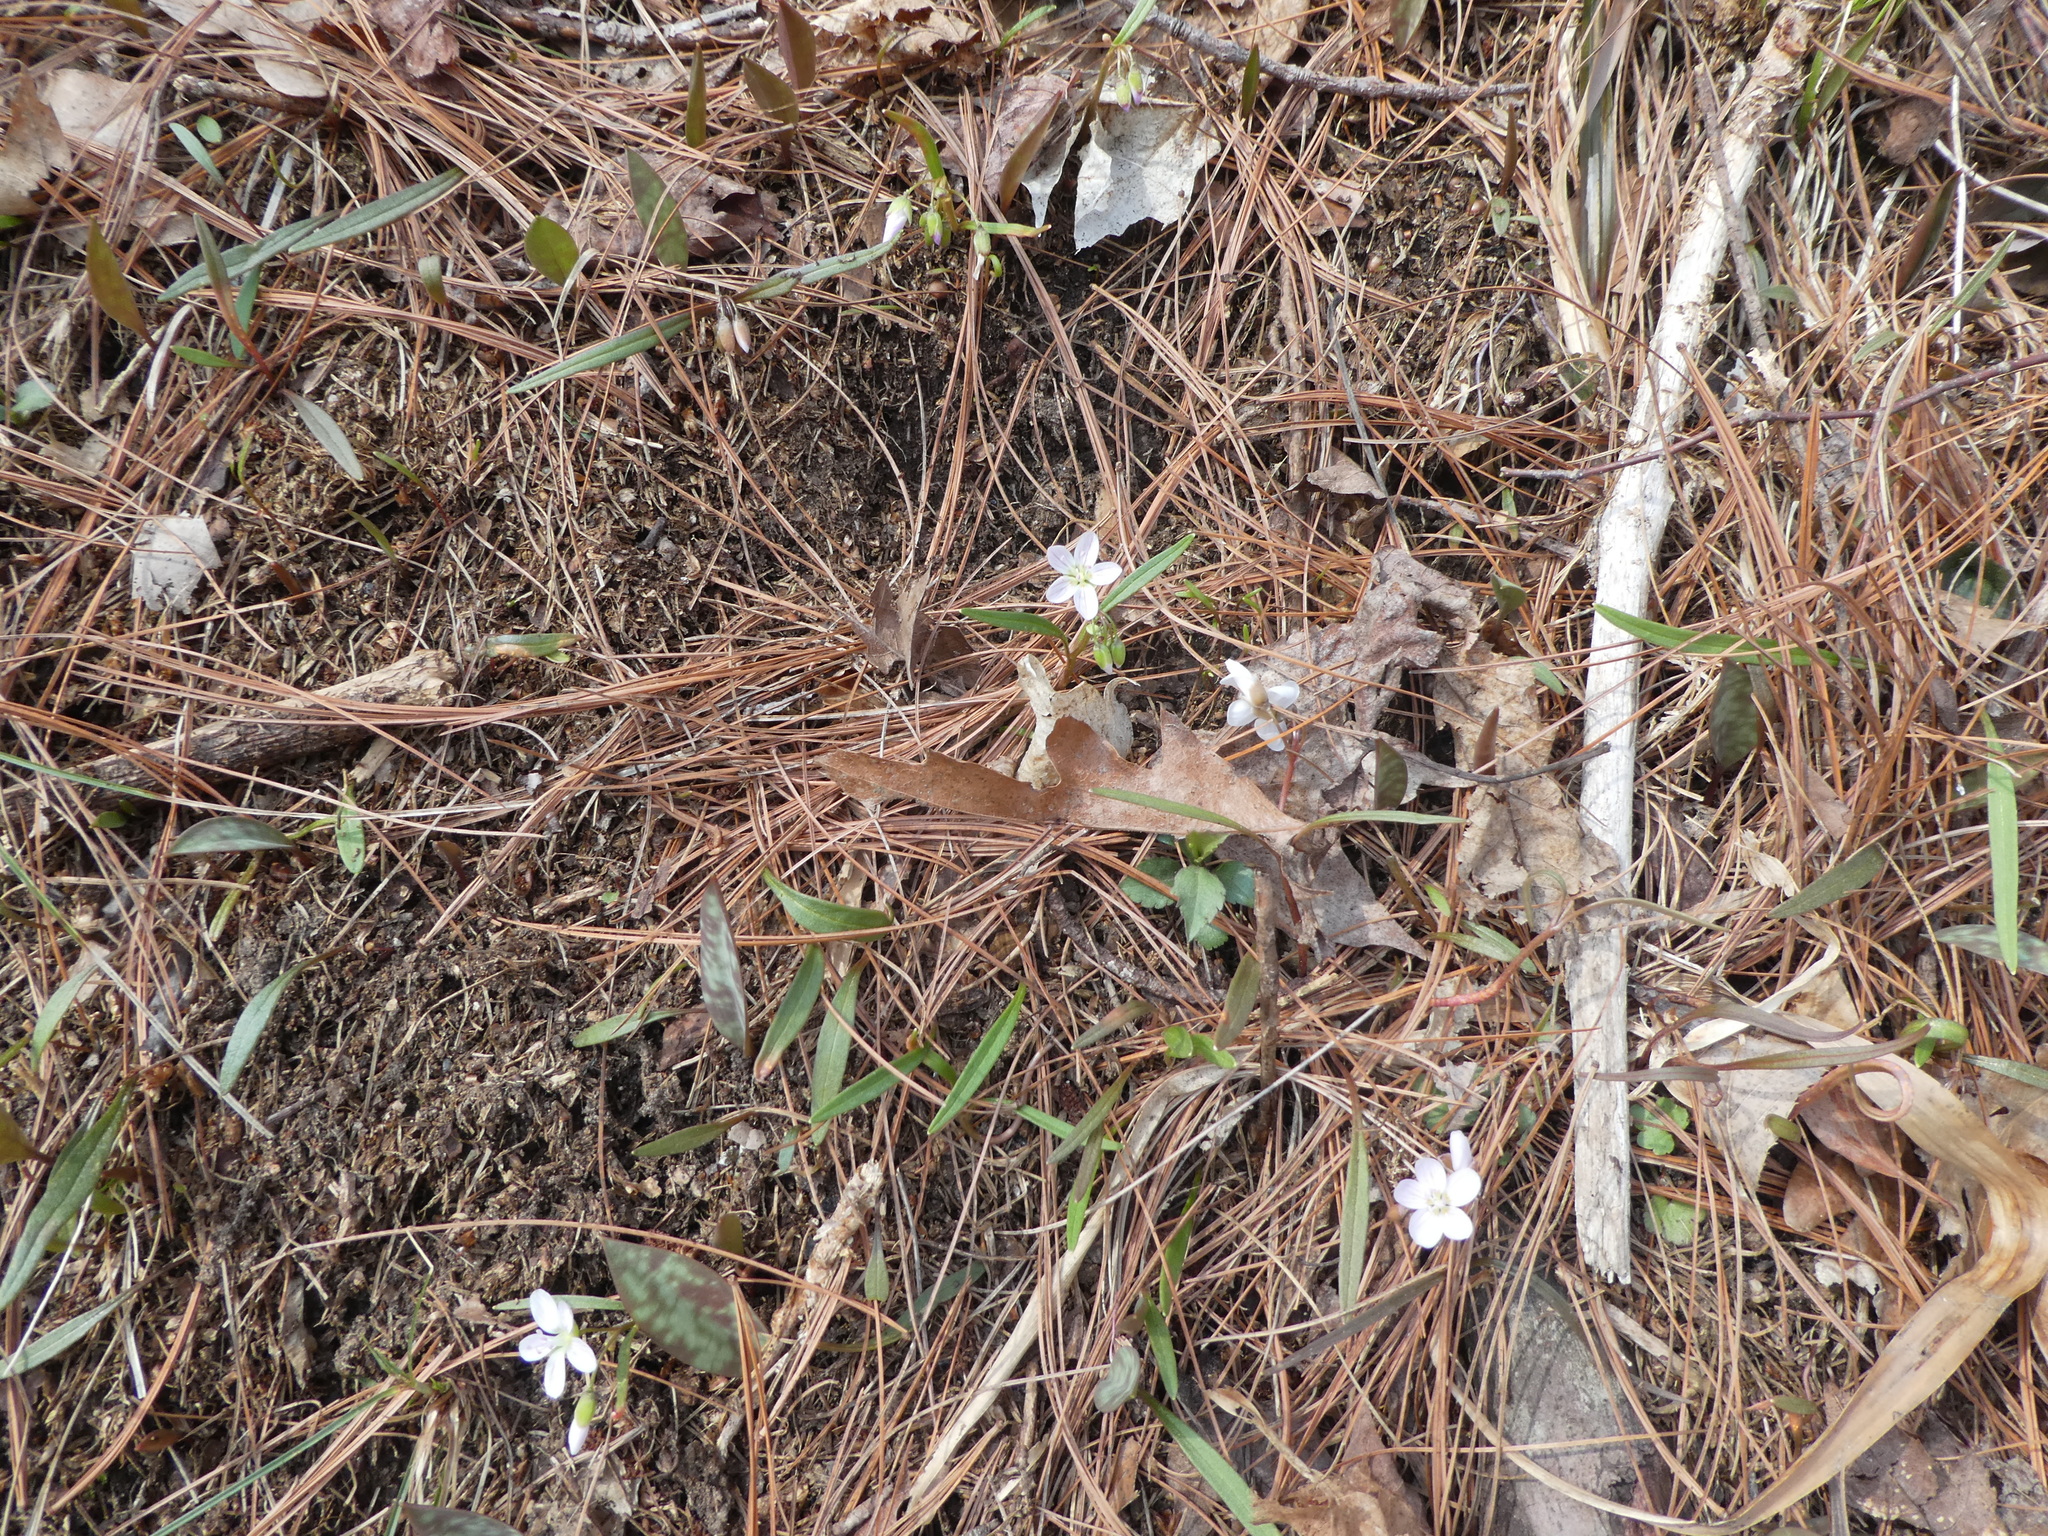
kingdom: Plantae
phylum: Tracheophyta
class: Magnoliopsida
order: Caryophyllales
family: Montiaceae
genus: Claytonia
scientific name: Claytonia virginica
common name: Virginia springbeauty
